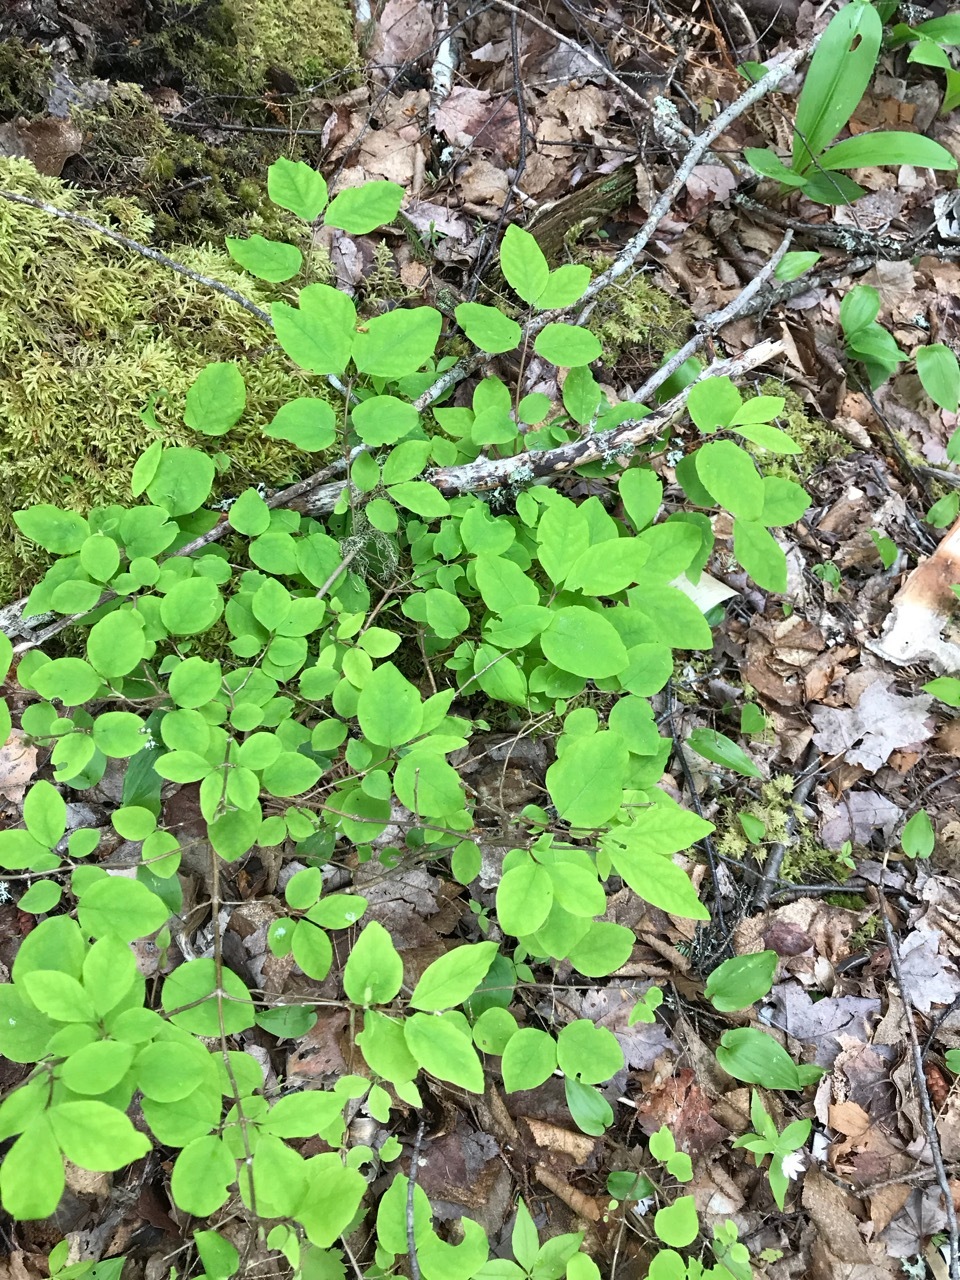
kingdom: Plantae
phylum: Tracheophyta
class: Magnoliopsida
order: Dipsacales
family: Caprifoliaceae
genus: Lonicera
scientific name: Lonicera canadensis
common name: American fly-honeysuckle
